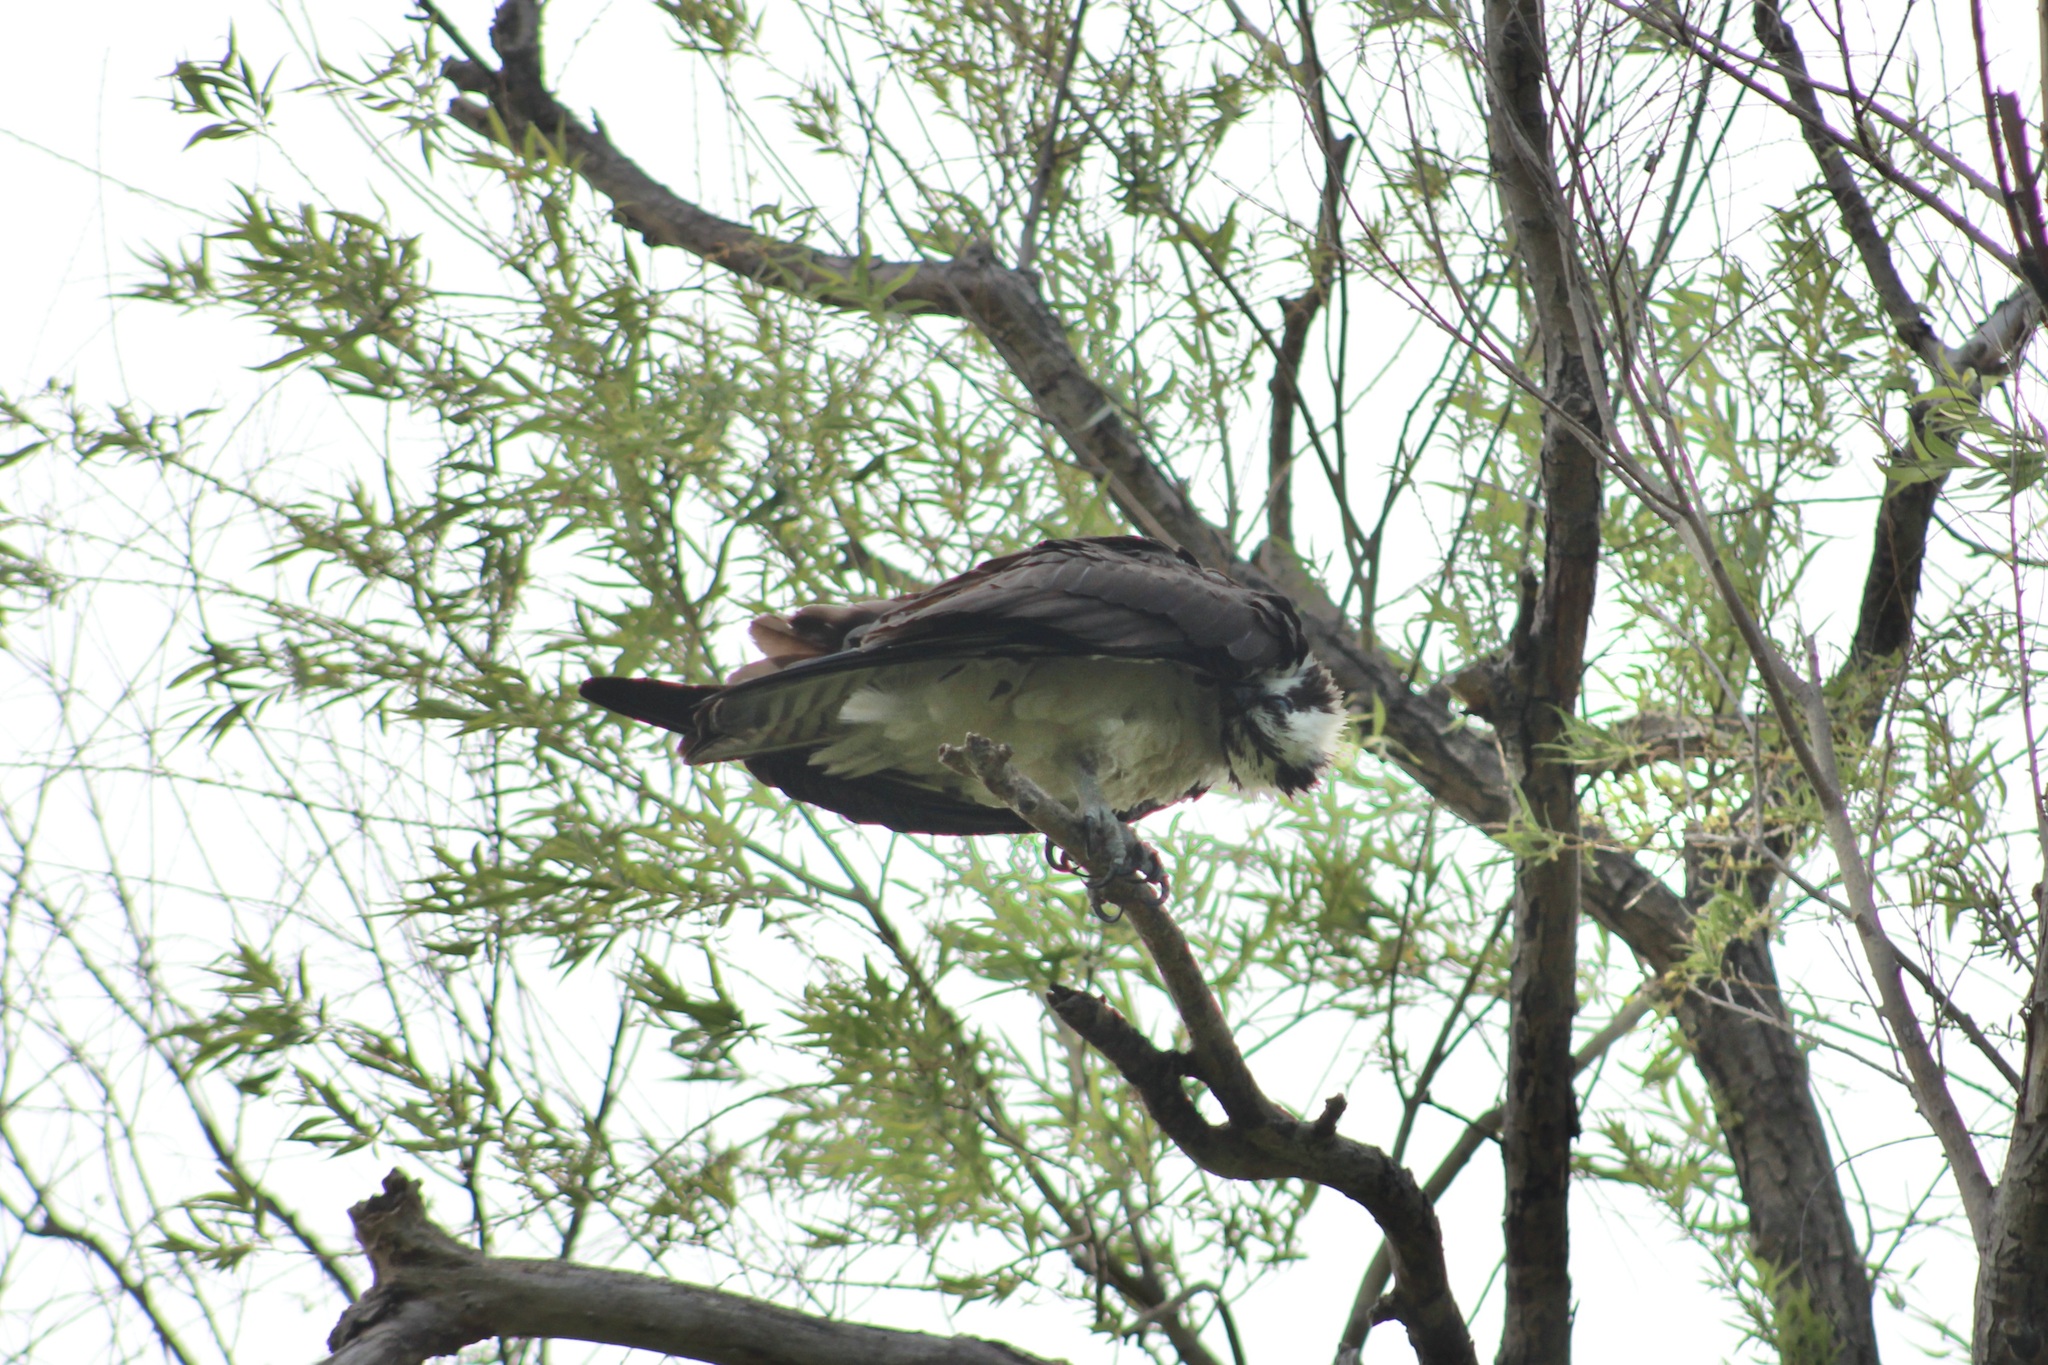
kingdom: Animalia
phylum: Chordata
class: Aves
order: Accipitriformes
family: Pandionidae
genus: Pandion
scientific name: Pandion haliaetus
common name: Osprey
